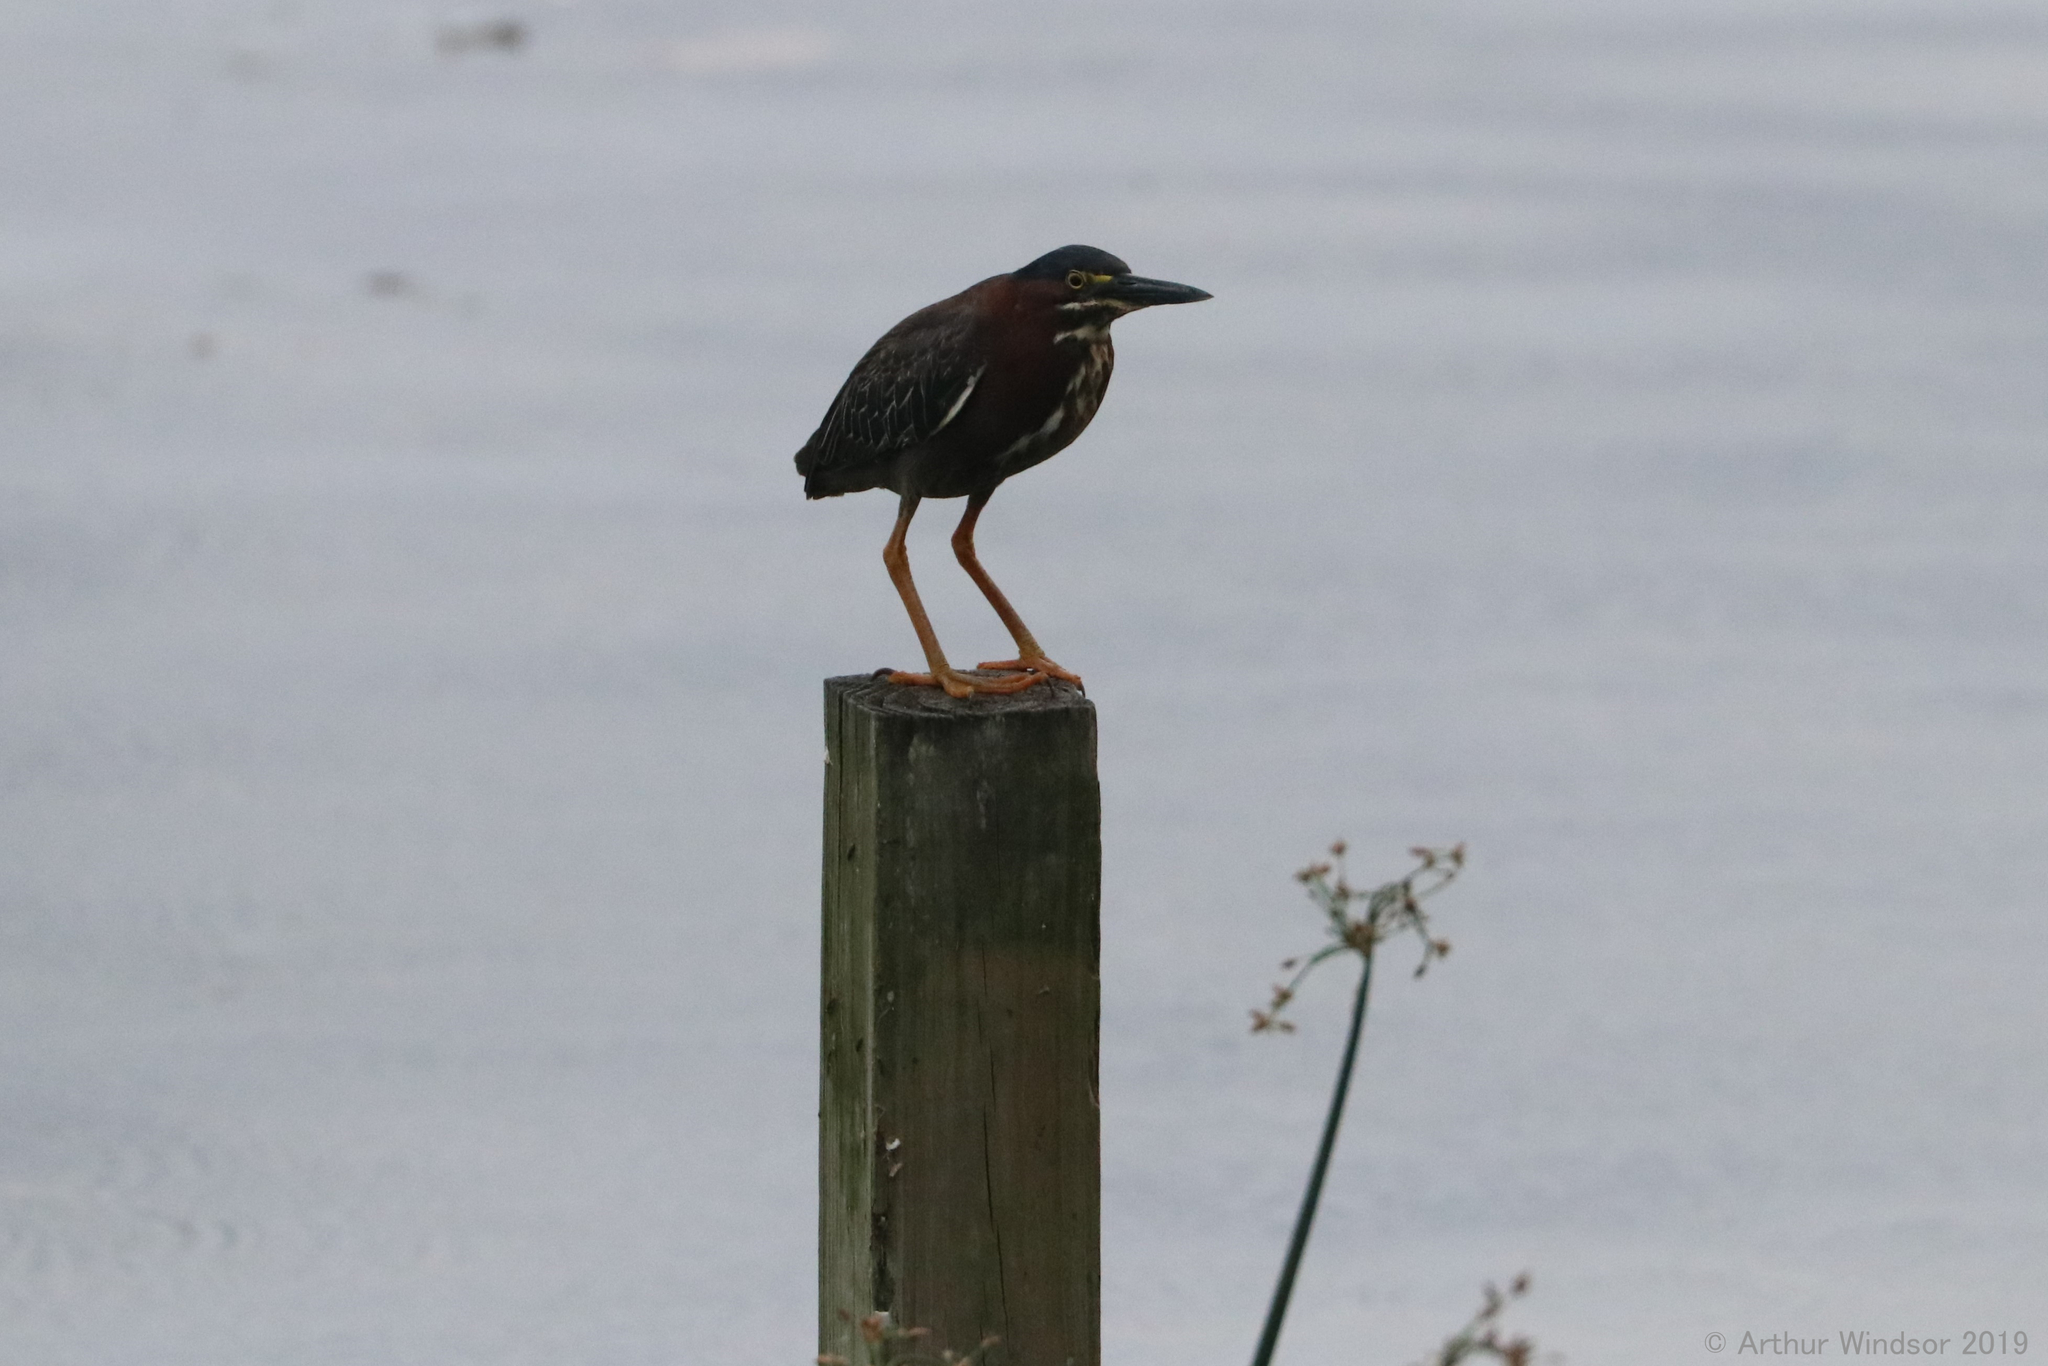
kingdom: Animalia
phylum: Chordata
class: Aves
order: Pelecaniformes
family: Ardeidae
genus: Butorides
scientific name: Butorides virescens
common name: Green heron
